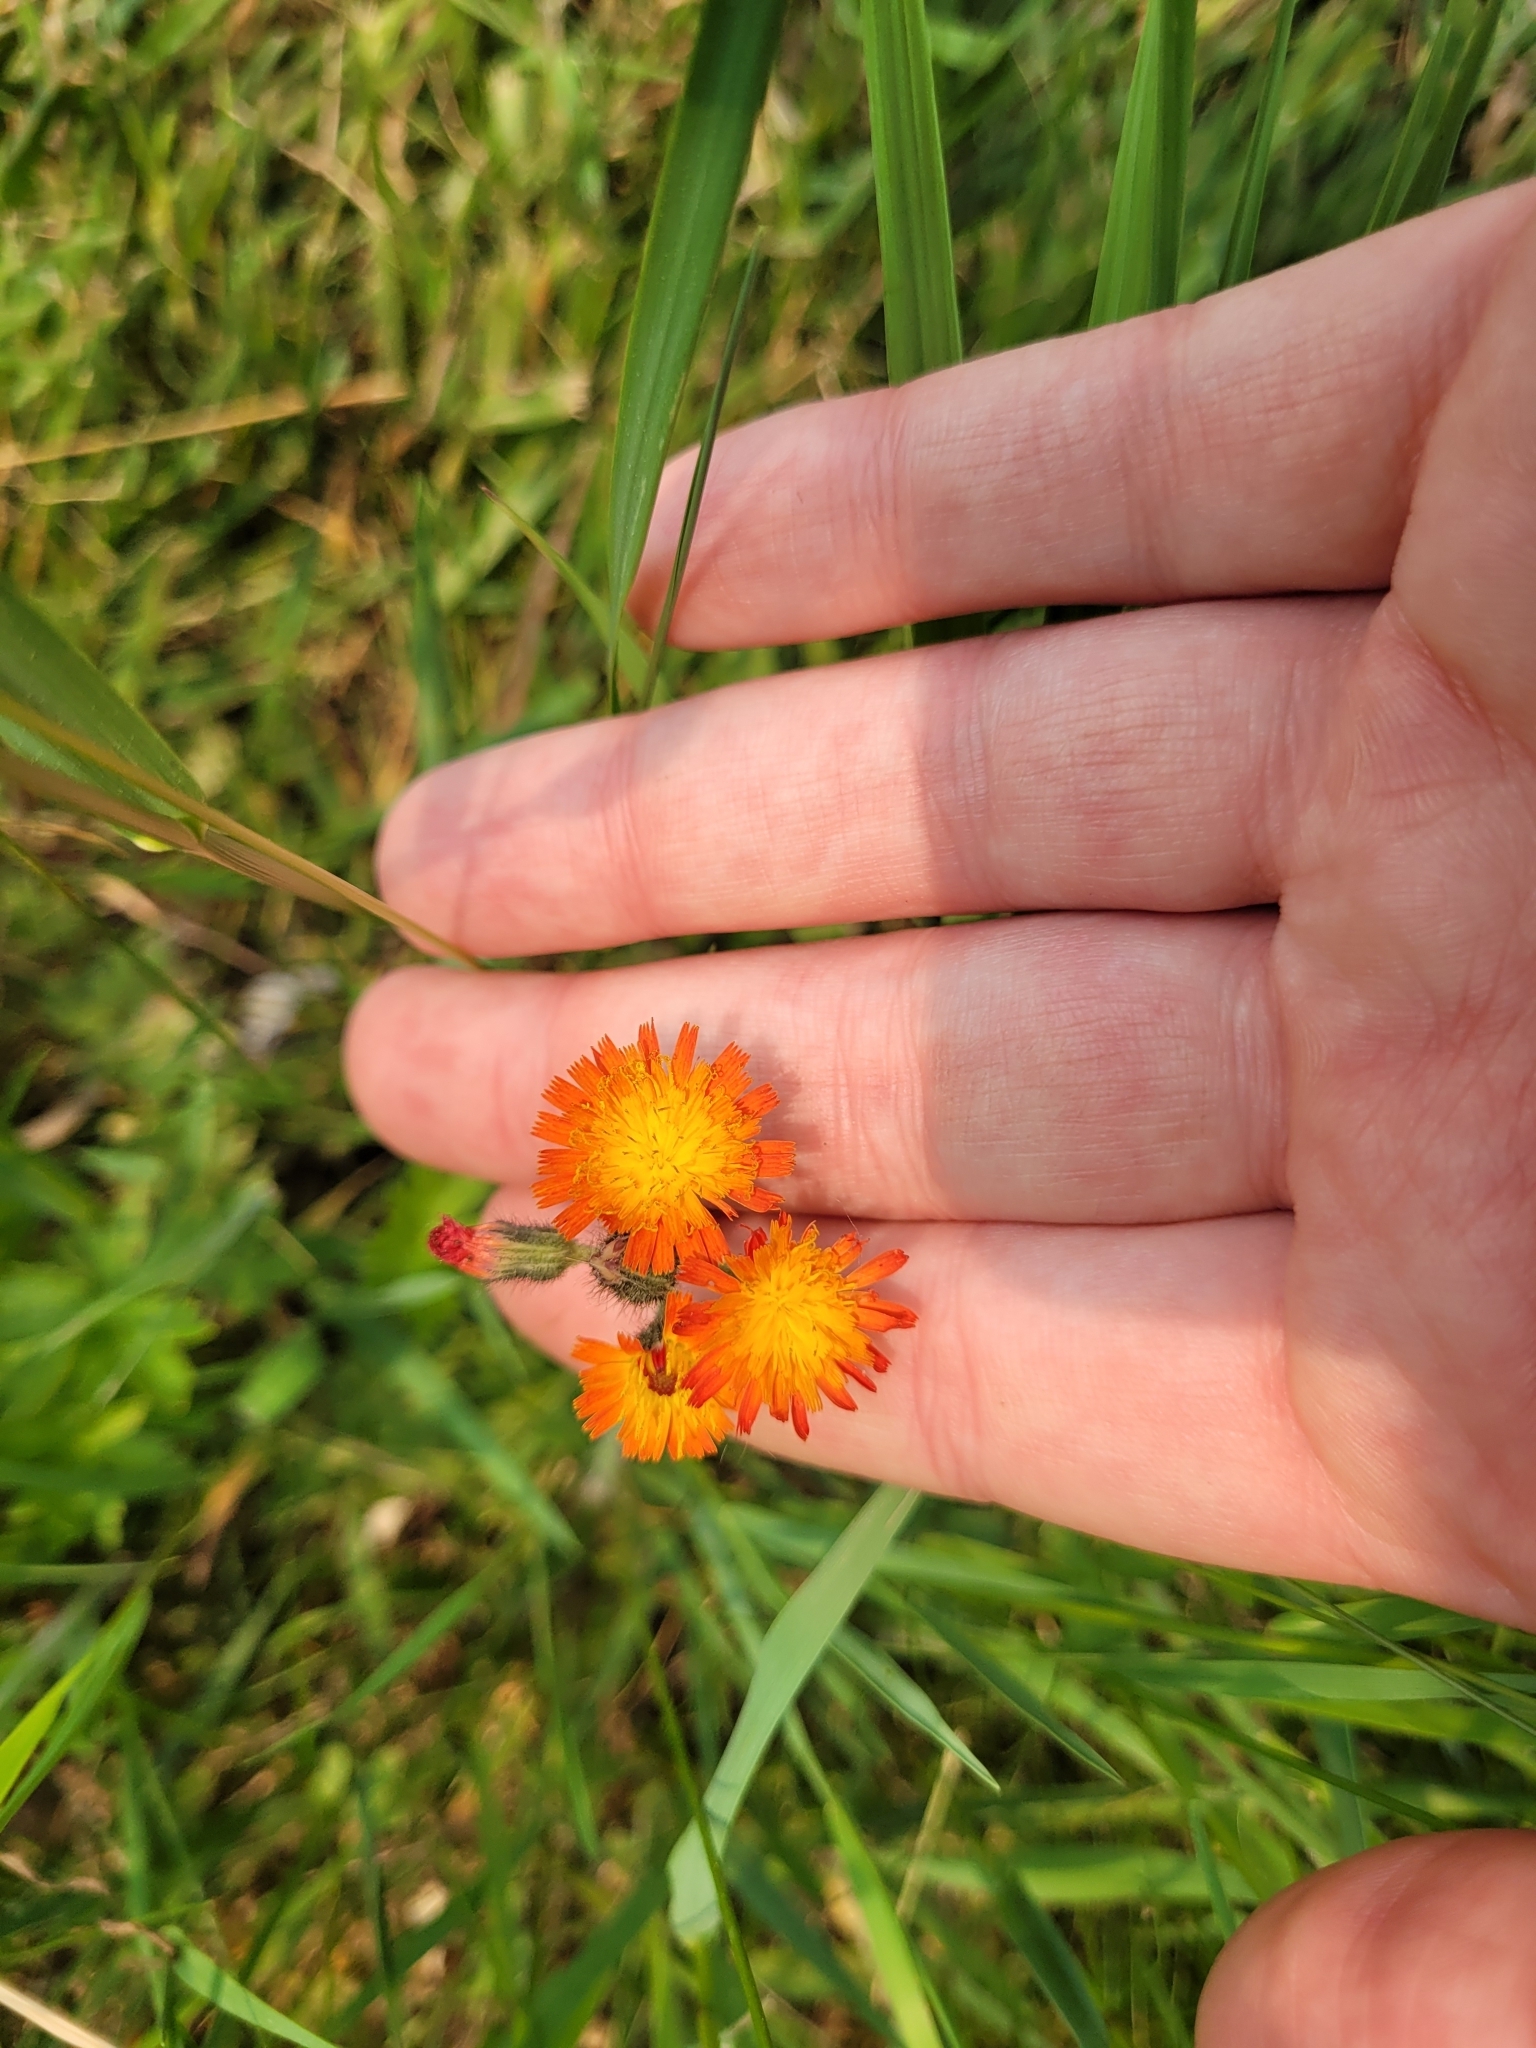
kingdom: Plantae
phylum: Tracheophyta
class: Magnoliopsida
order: Asterales
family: Asteraceae
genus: Pilosella
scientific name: Pilosella aurantiaca
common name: Fox-and-cubs
